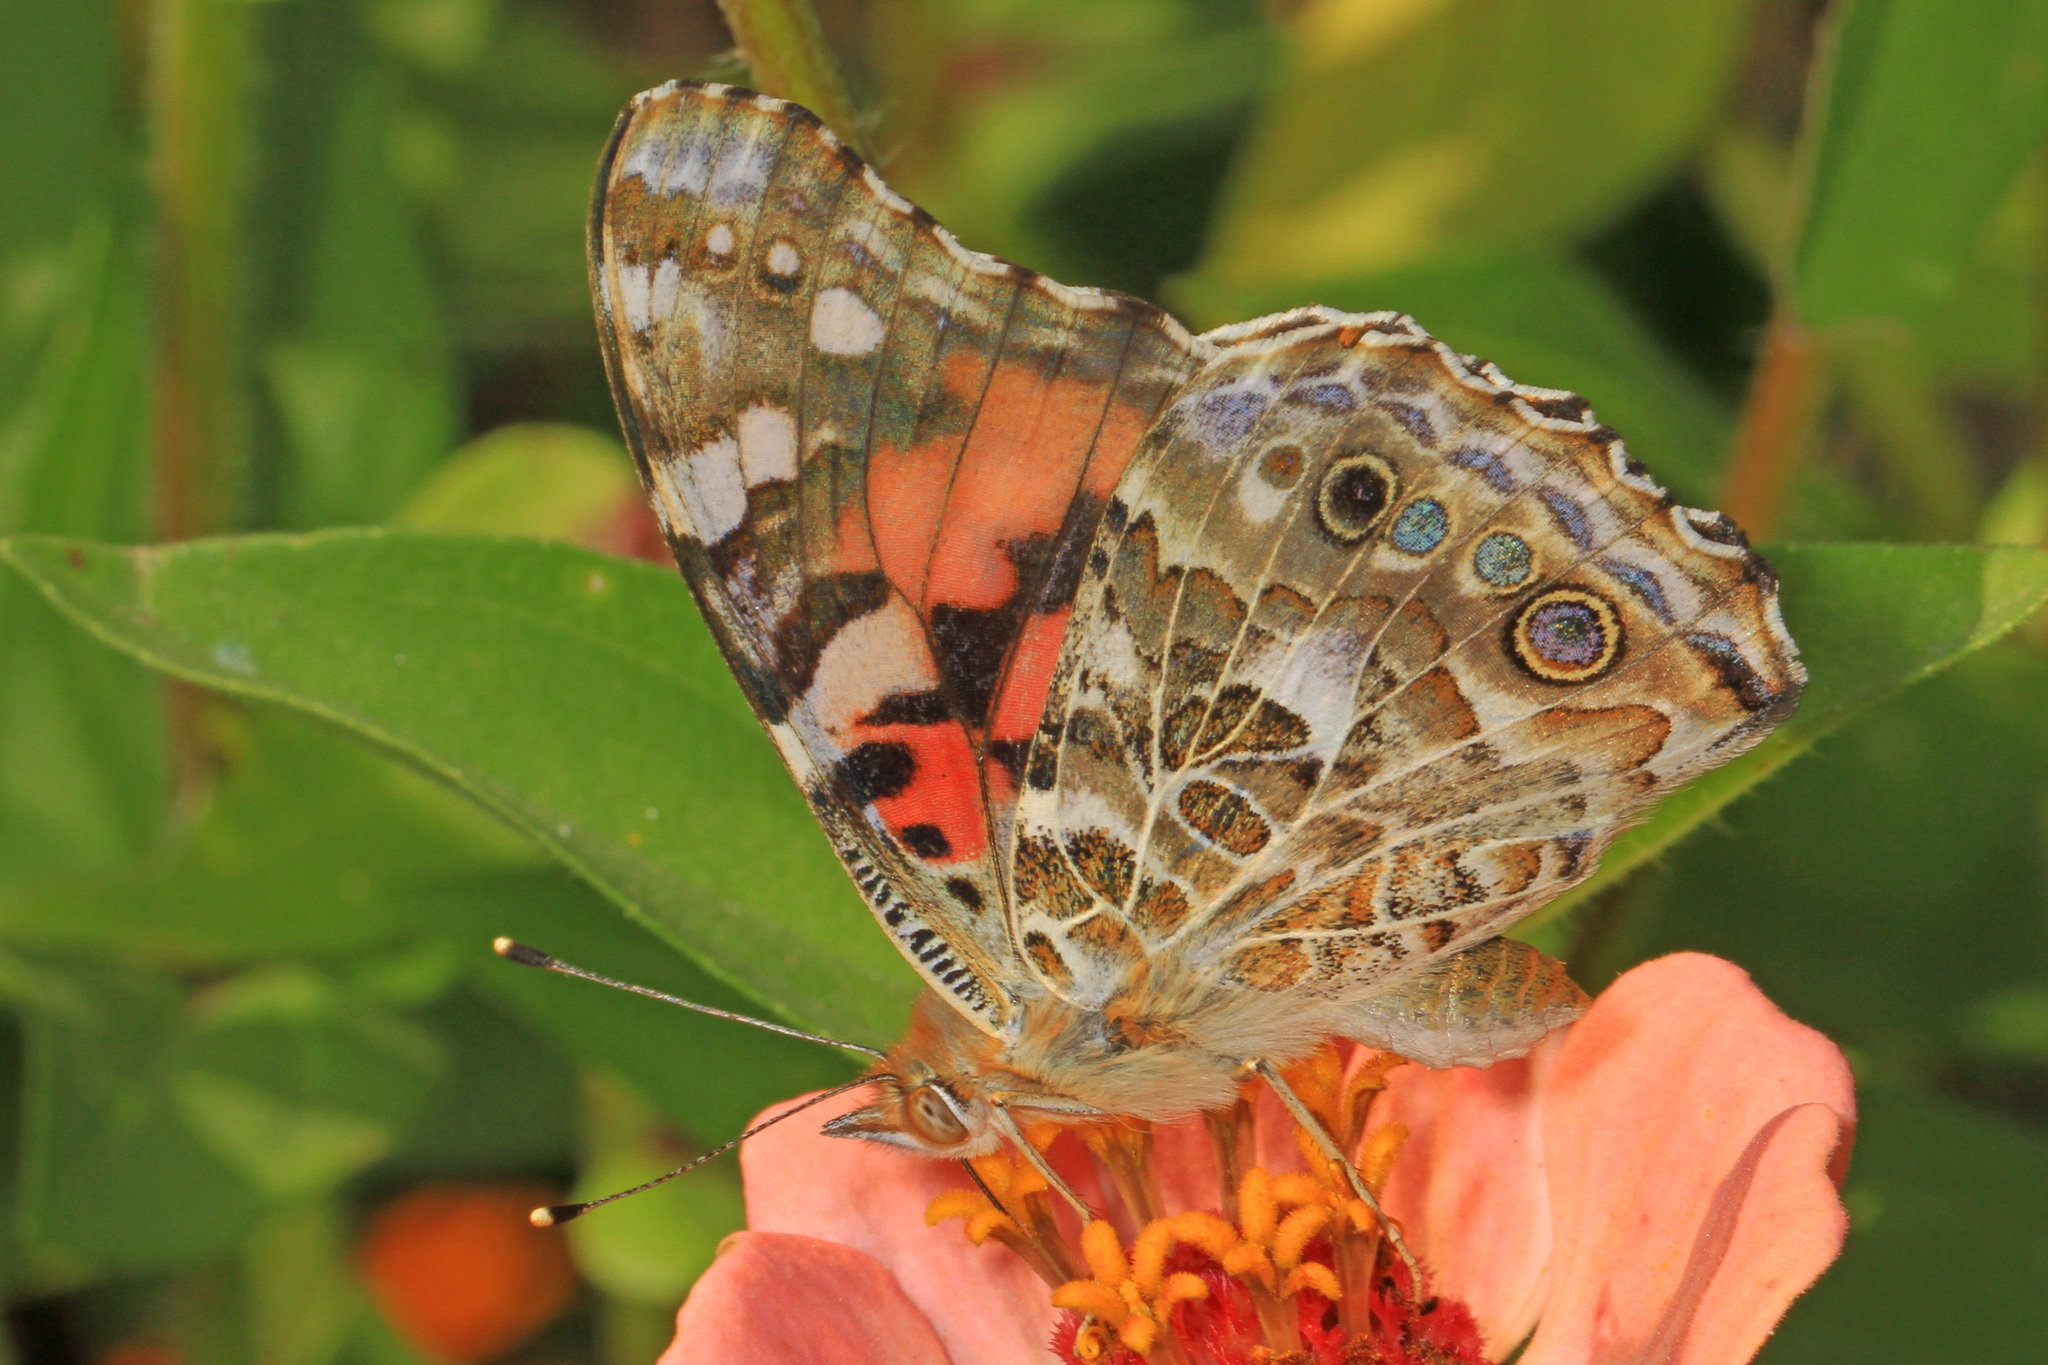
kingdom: Animalia
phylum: Arthropoda
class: Insecta
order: Lepidoptera
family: Nymphalidae
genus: Vanessa
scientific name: Vanessa cardui
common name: Painted lady
